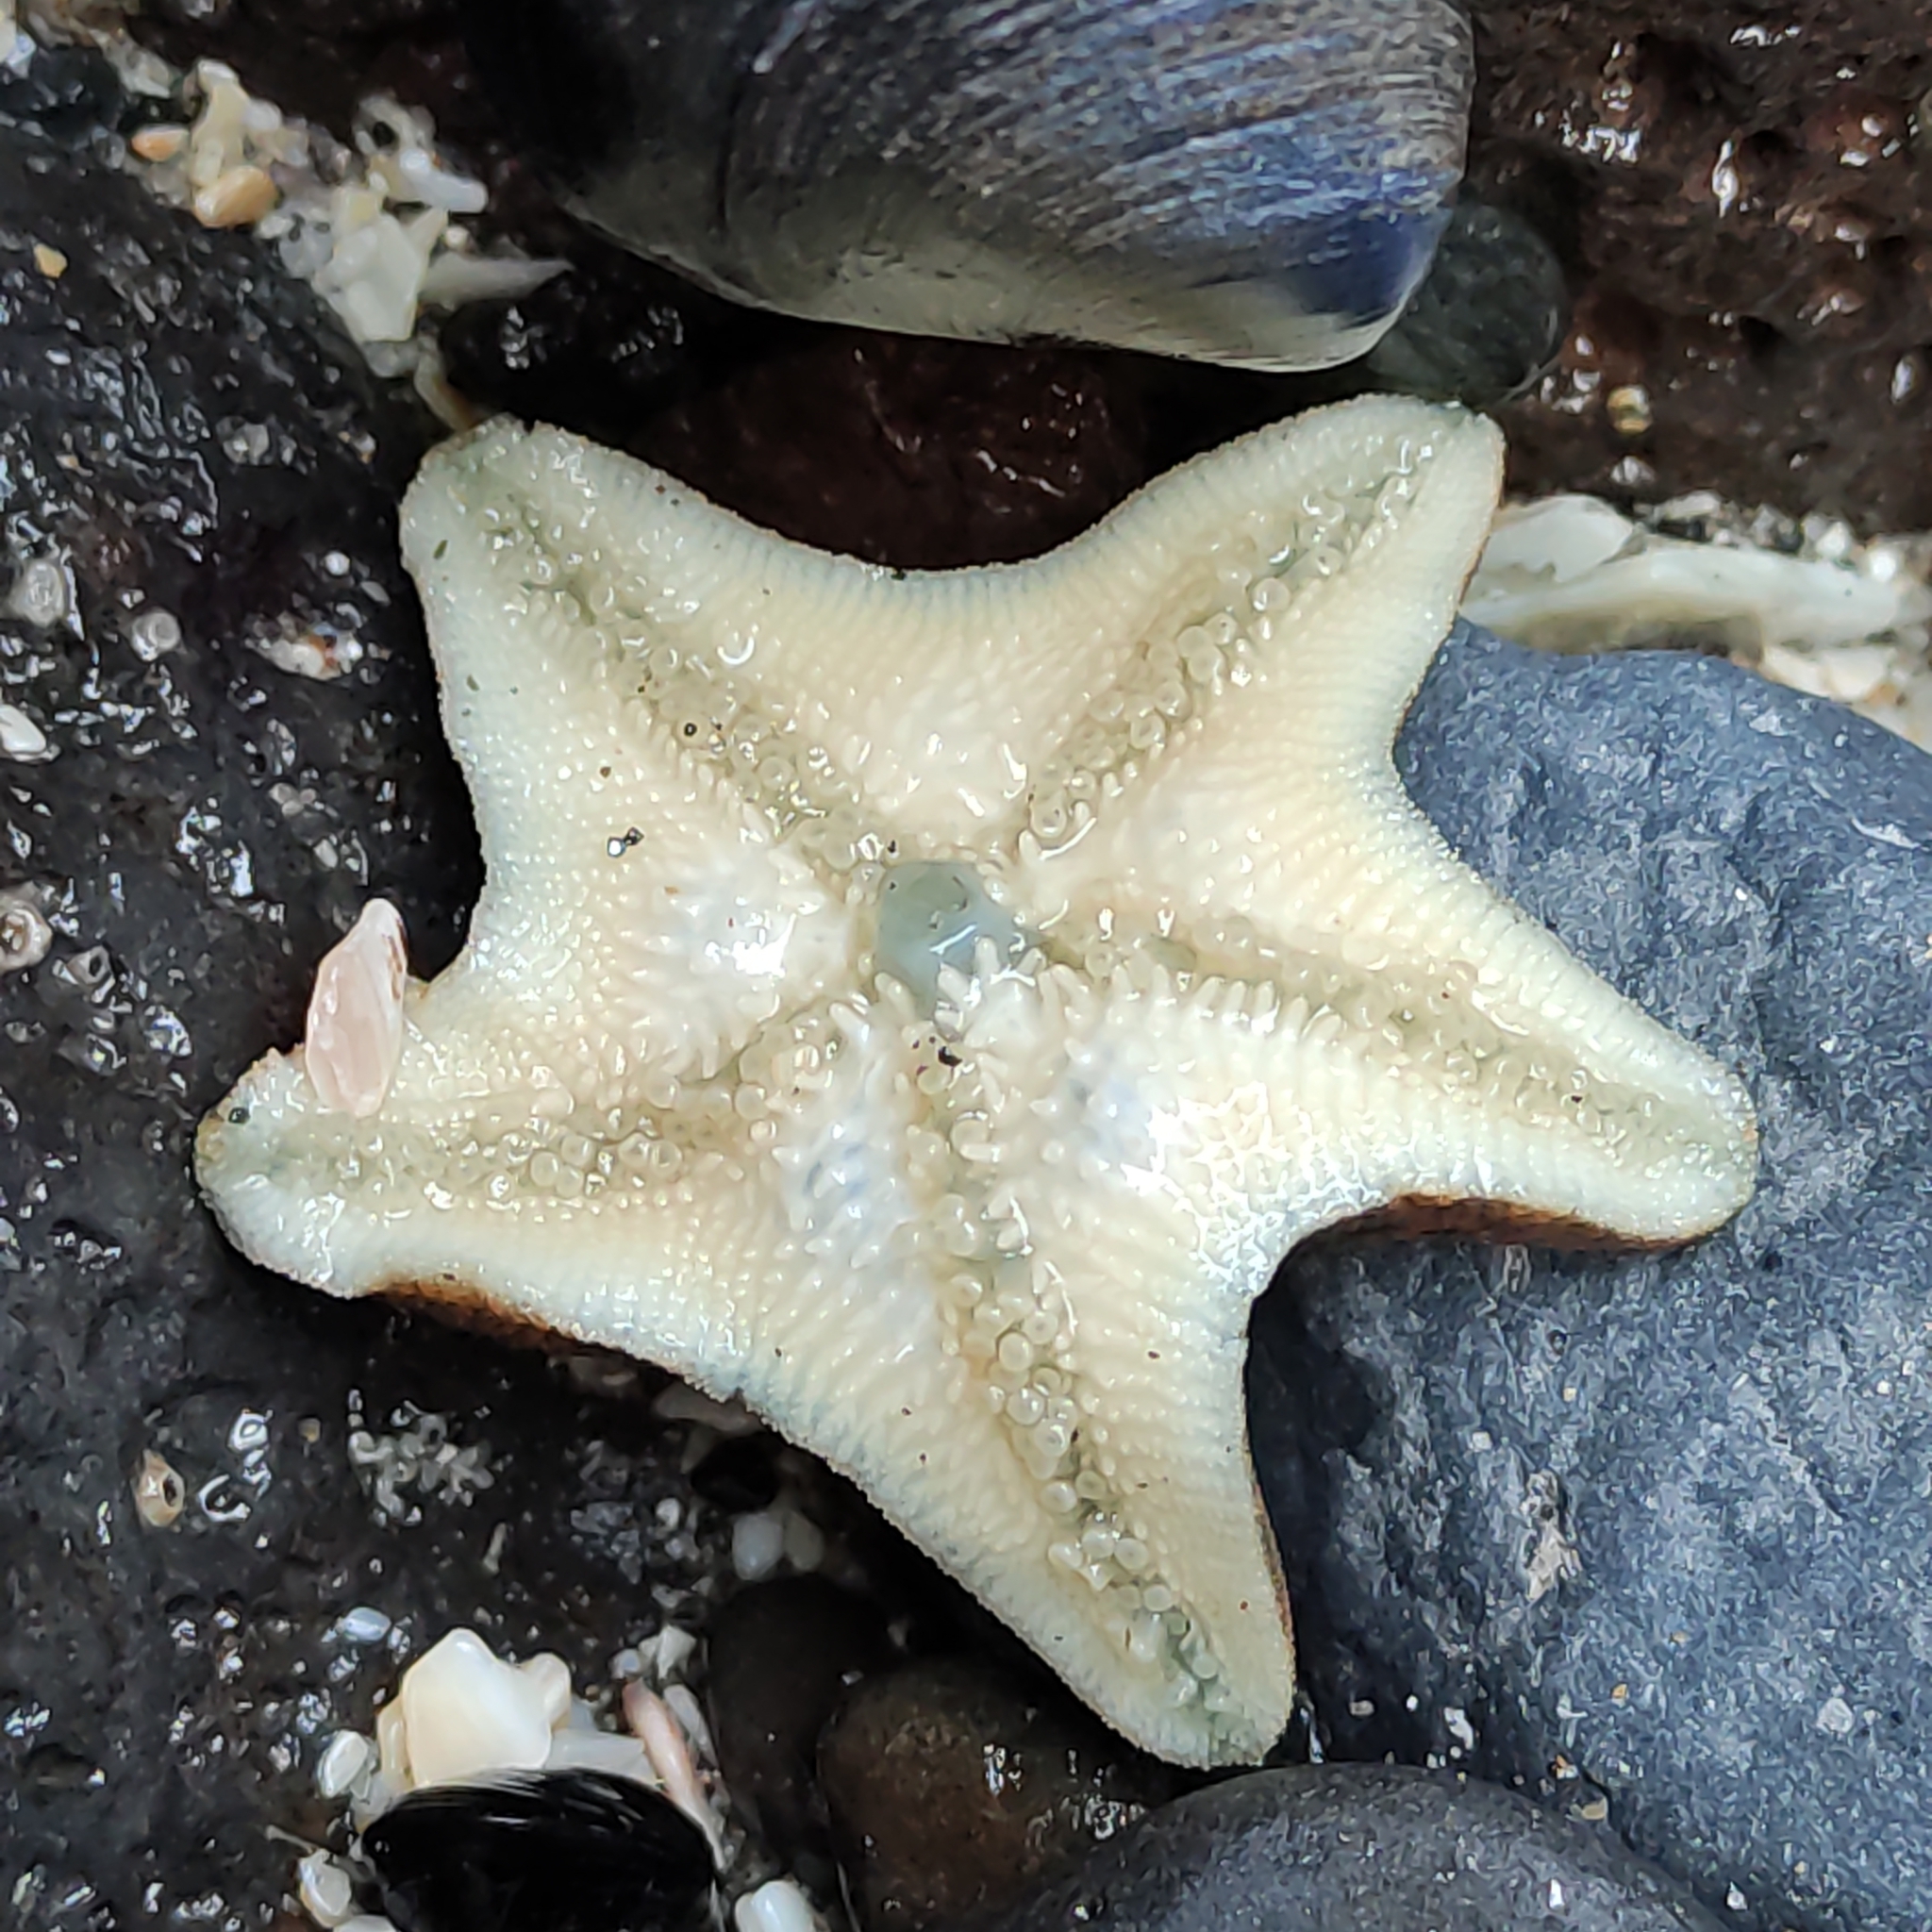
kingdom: Animalia
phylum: Echinodermata
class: Asteroidea
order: Valvatida
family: Asterinidae
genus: Patiriella
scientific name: Patiriella regularis
